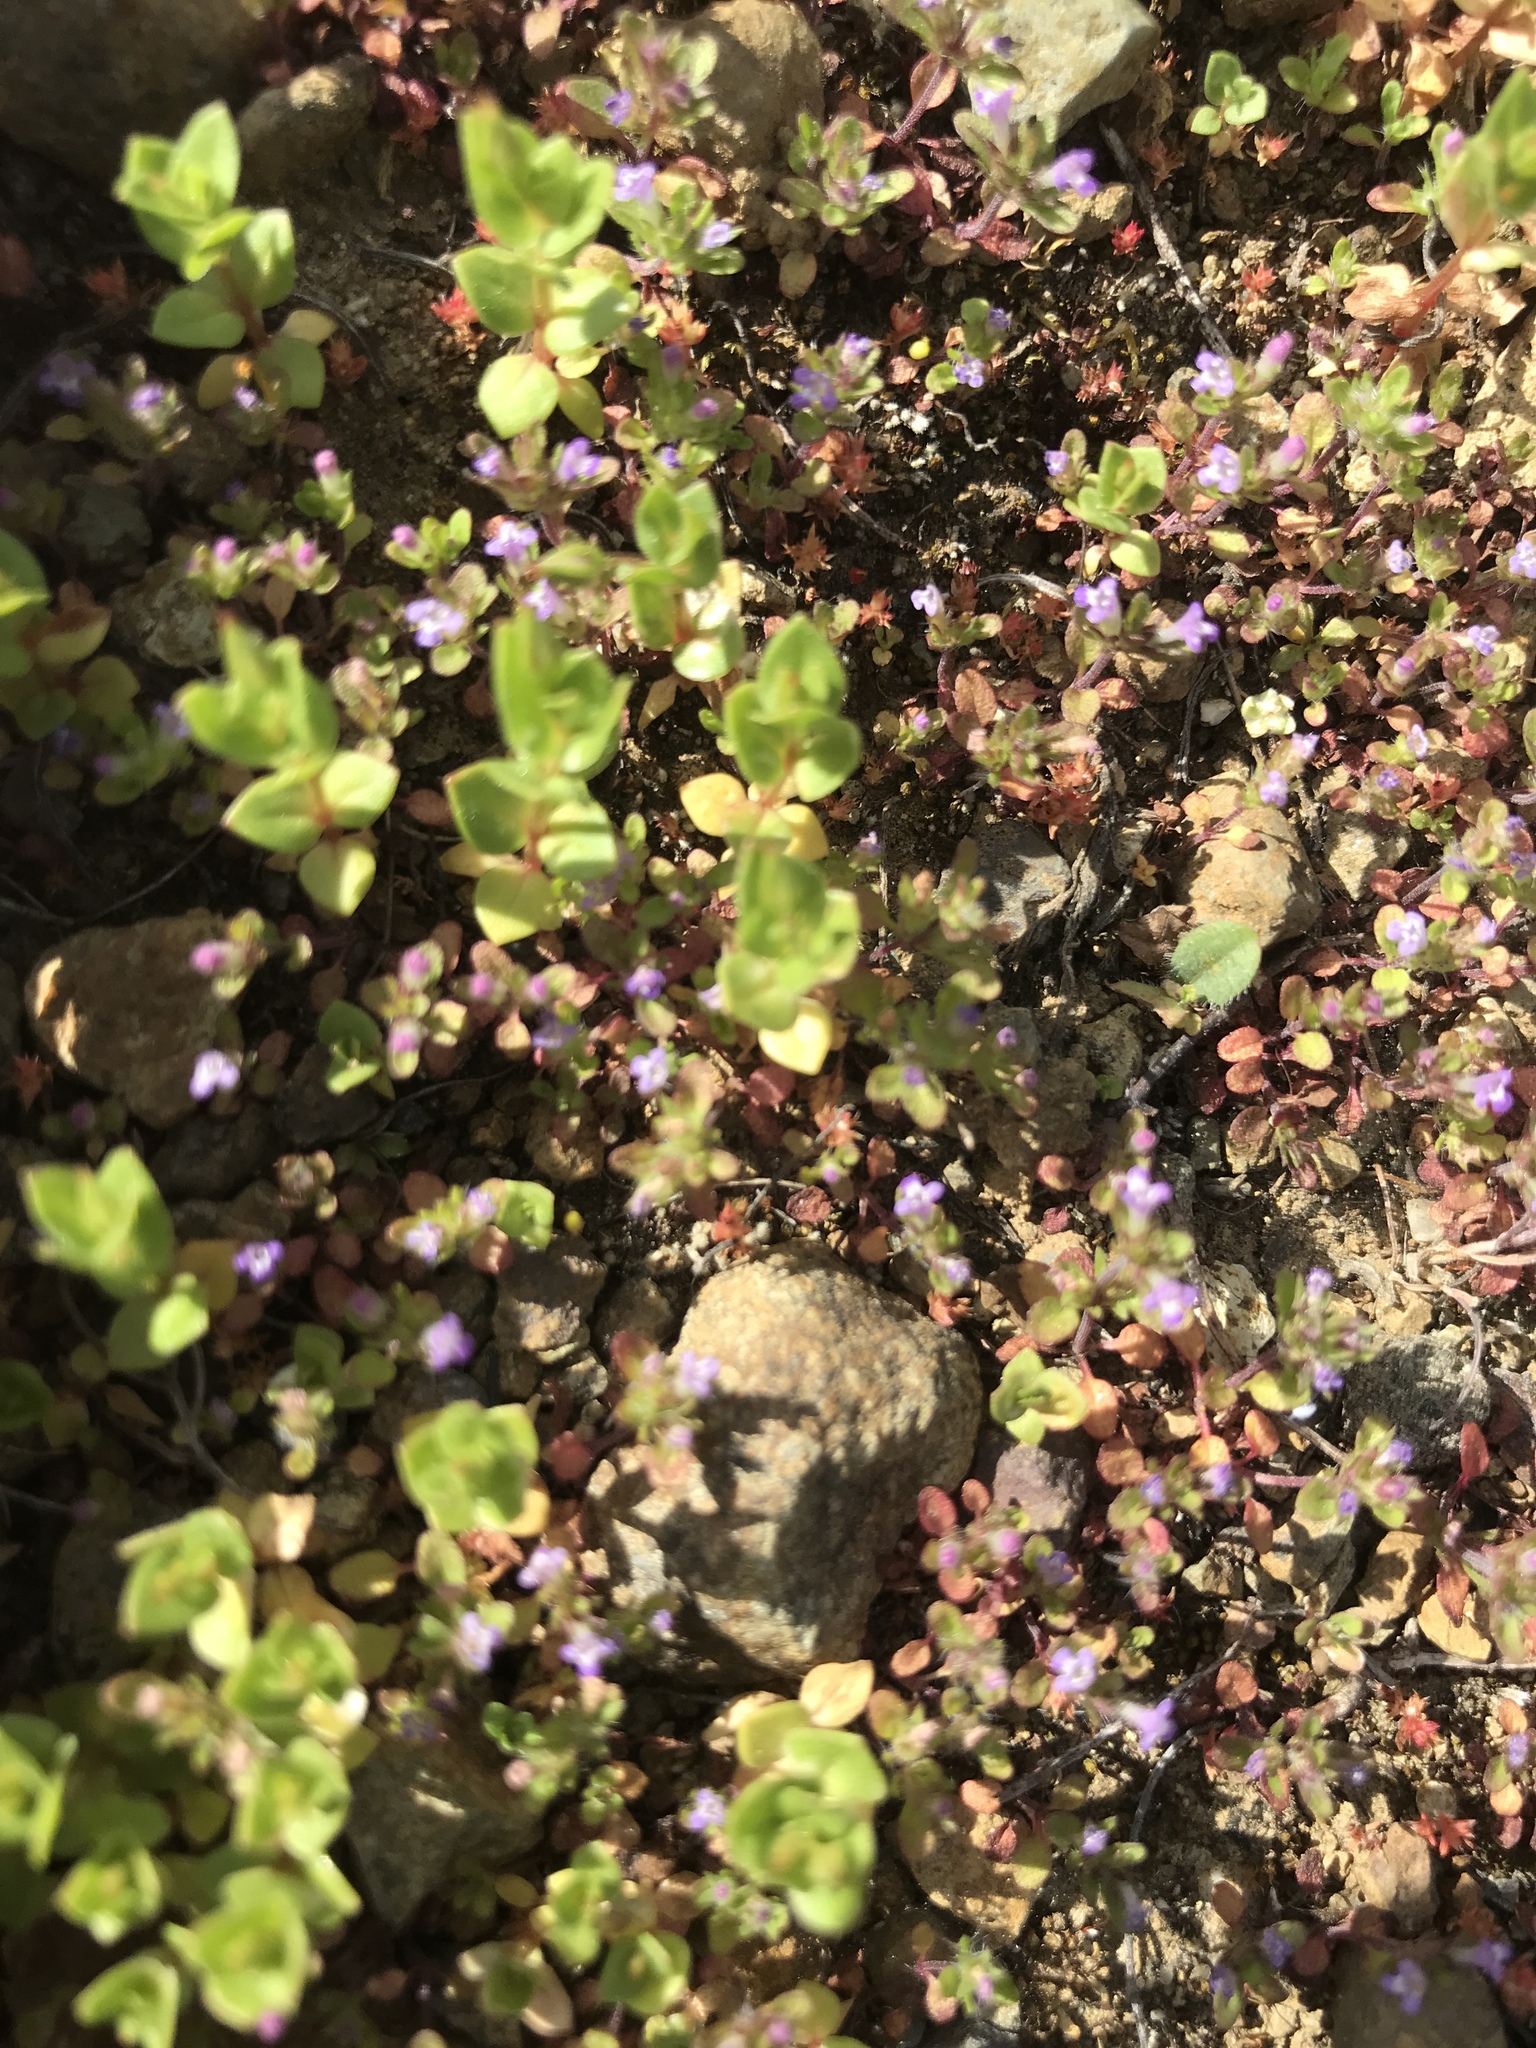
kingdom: Plantae
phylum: Tracheophyta
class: Magnoliopsida
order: Lamiales
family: Lamiaceae
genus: Pogogyne
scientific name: Pogogyne serpylloides
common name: Thymeleaf mesamint
